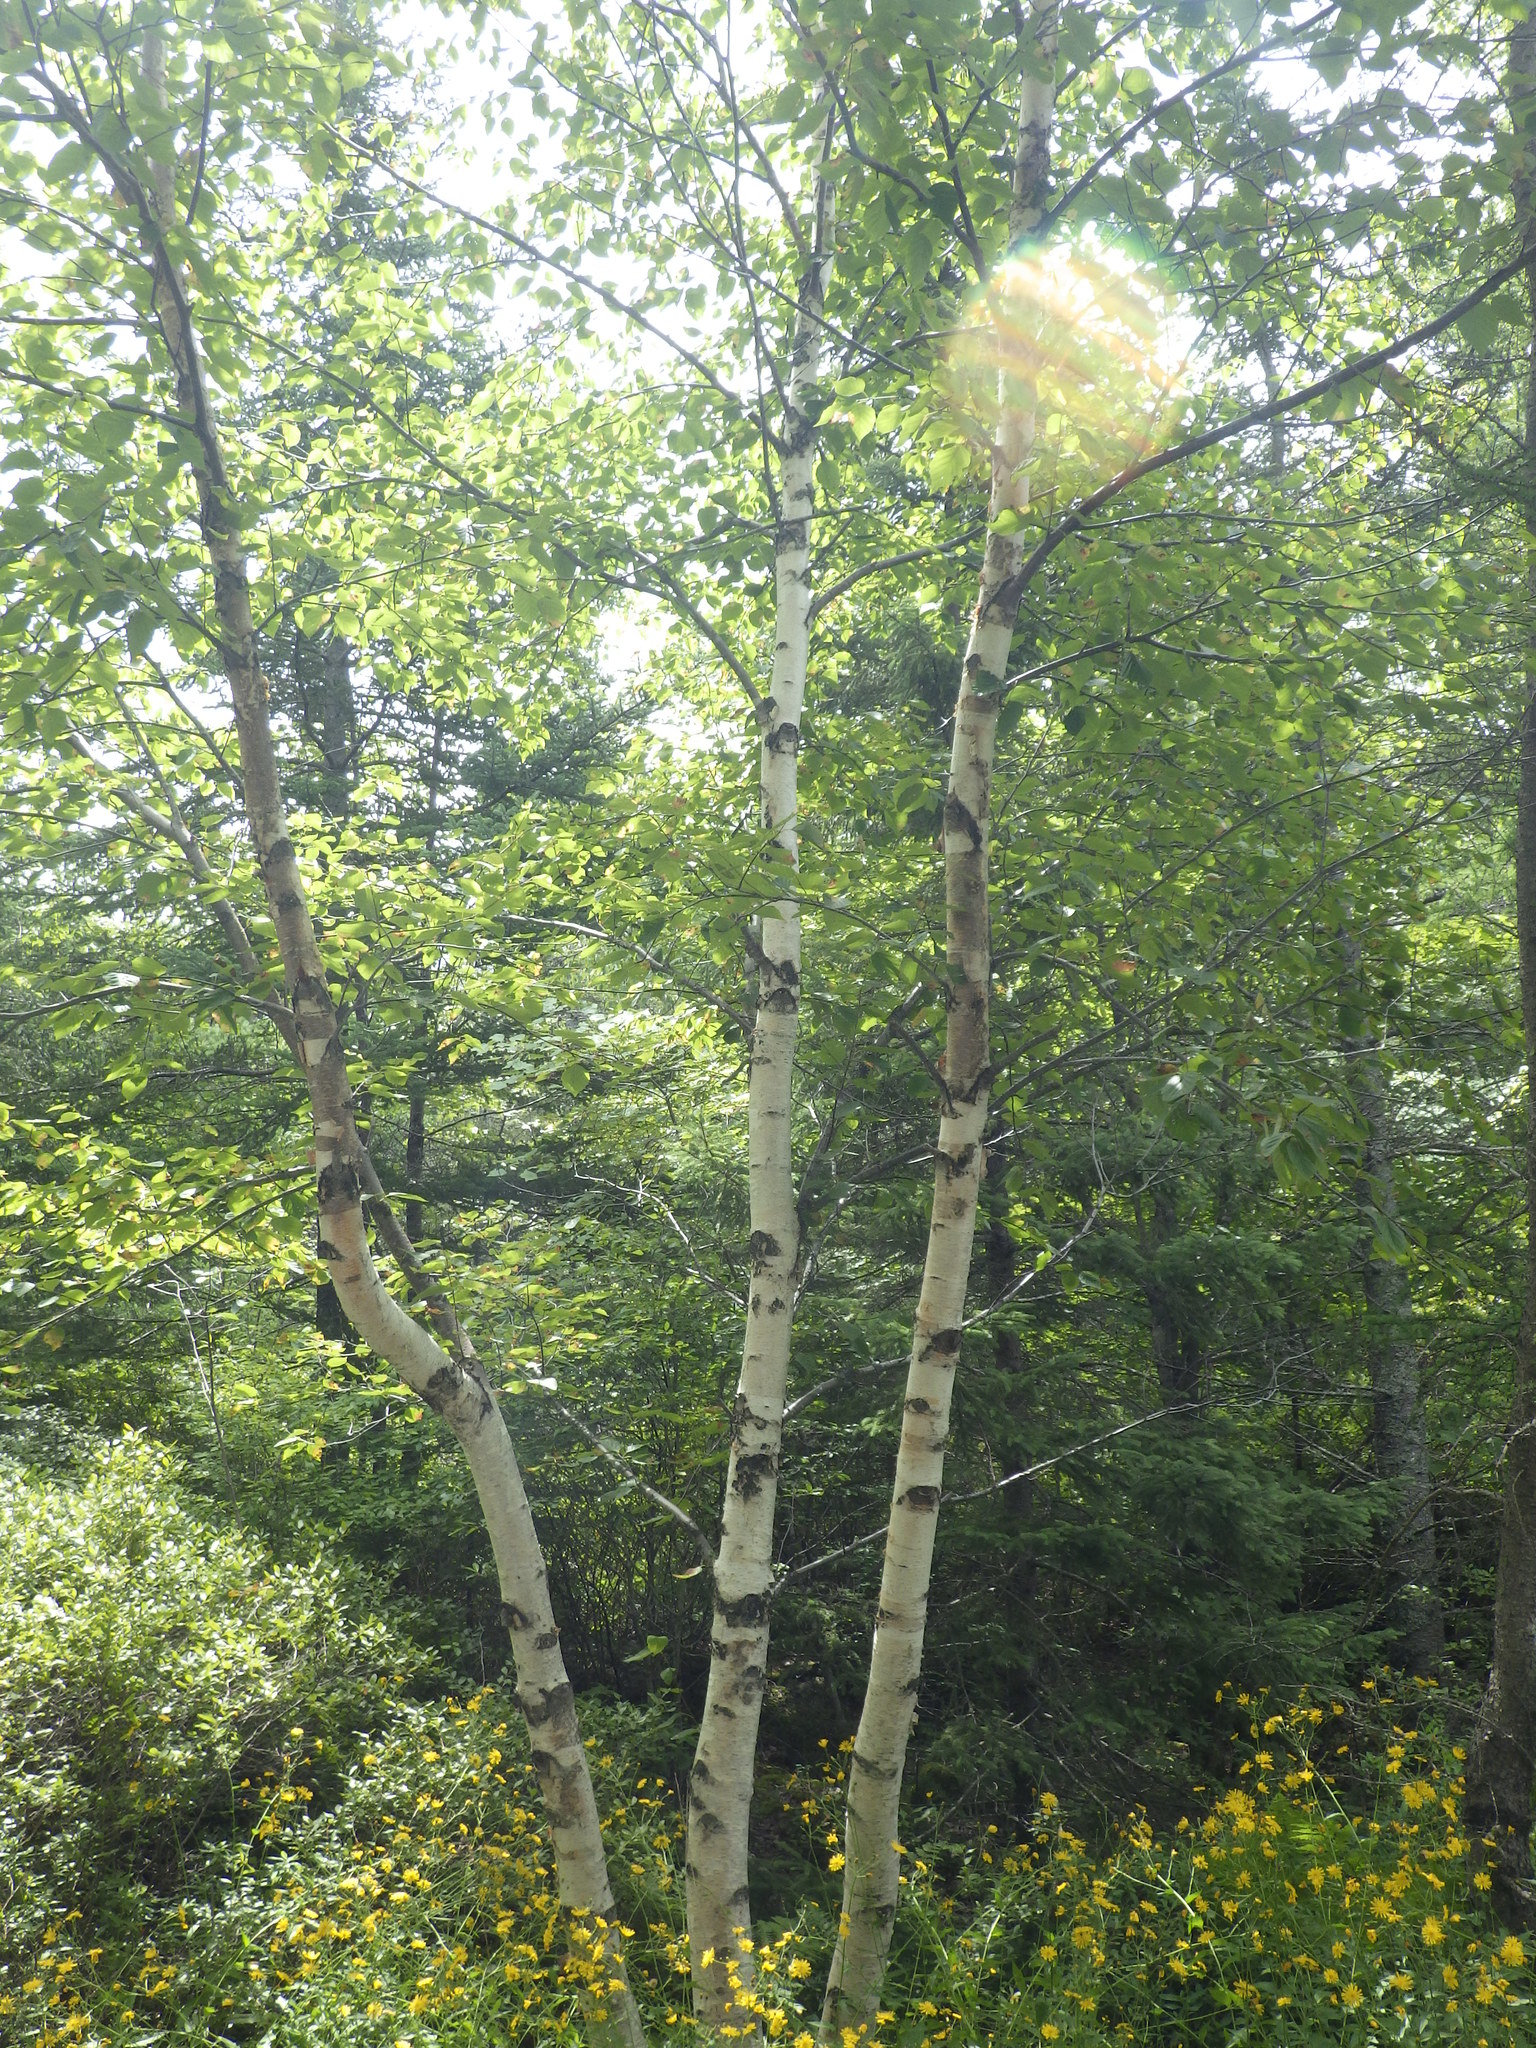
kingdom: Plantae
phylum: Tracheophyta
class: Magnoliopsida
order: Fagales
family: Betulaceae
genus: Betula
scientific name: Betula papyrifera
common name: Paper birch
